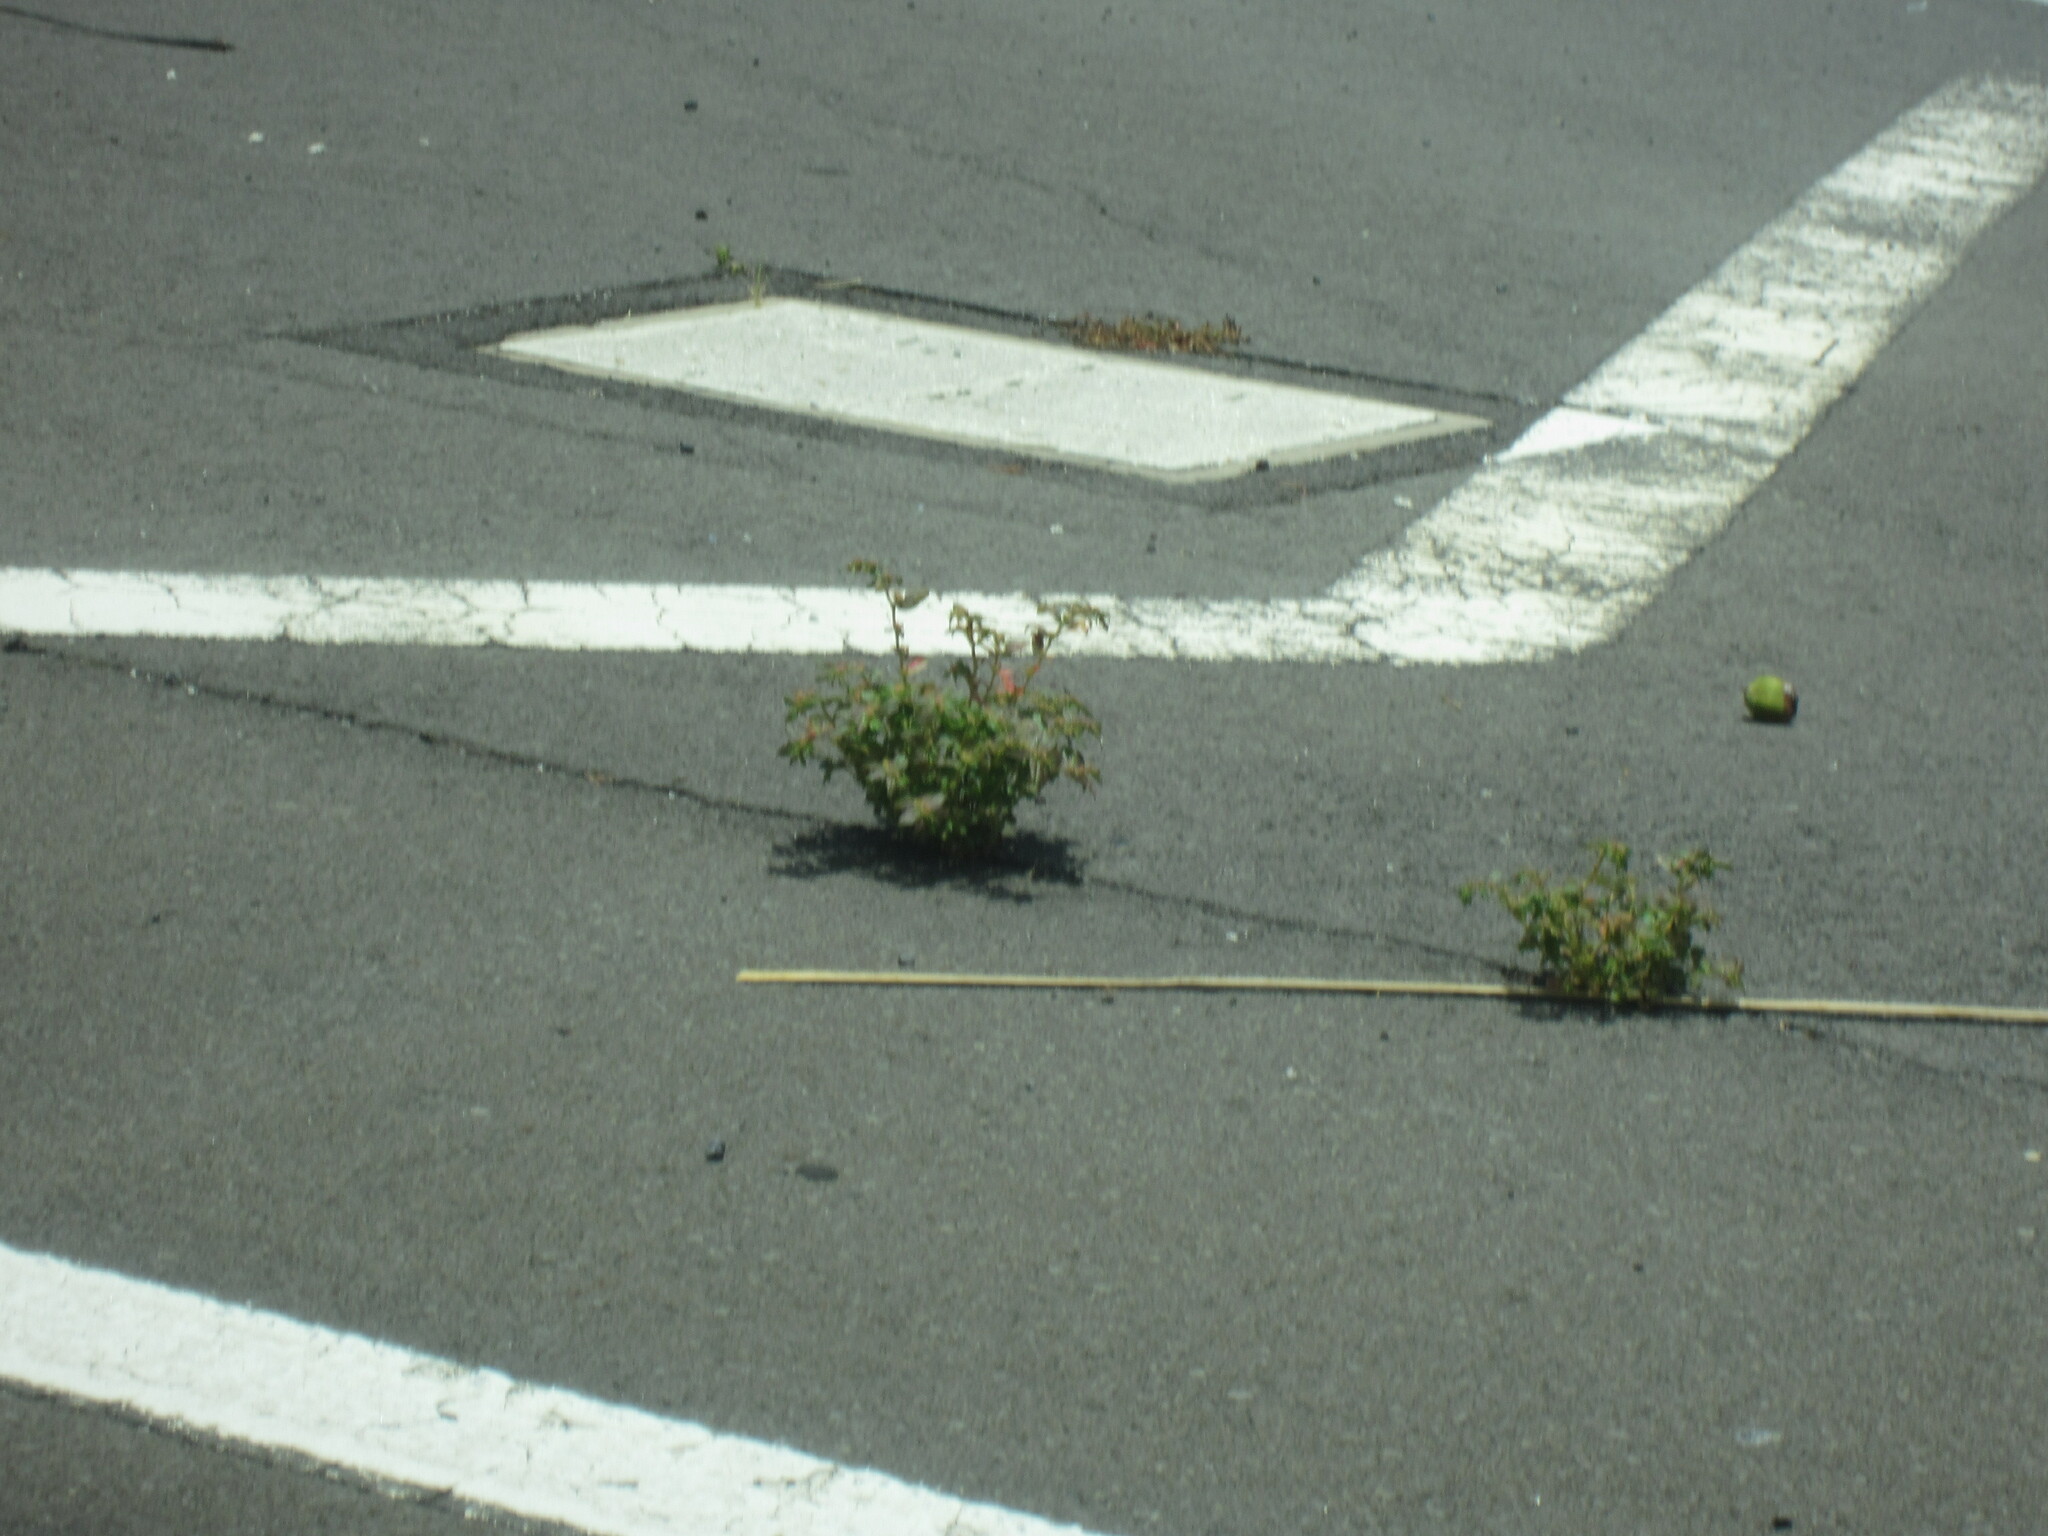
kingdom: Plantae
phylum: Tracheophyta
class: Magnoliopsida
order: Malpighiales
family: Euphorbiaceae
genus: Euphorbia
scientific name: Euphorbia hirta
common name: Pillpod sandmat
